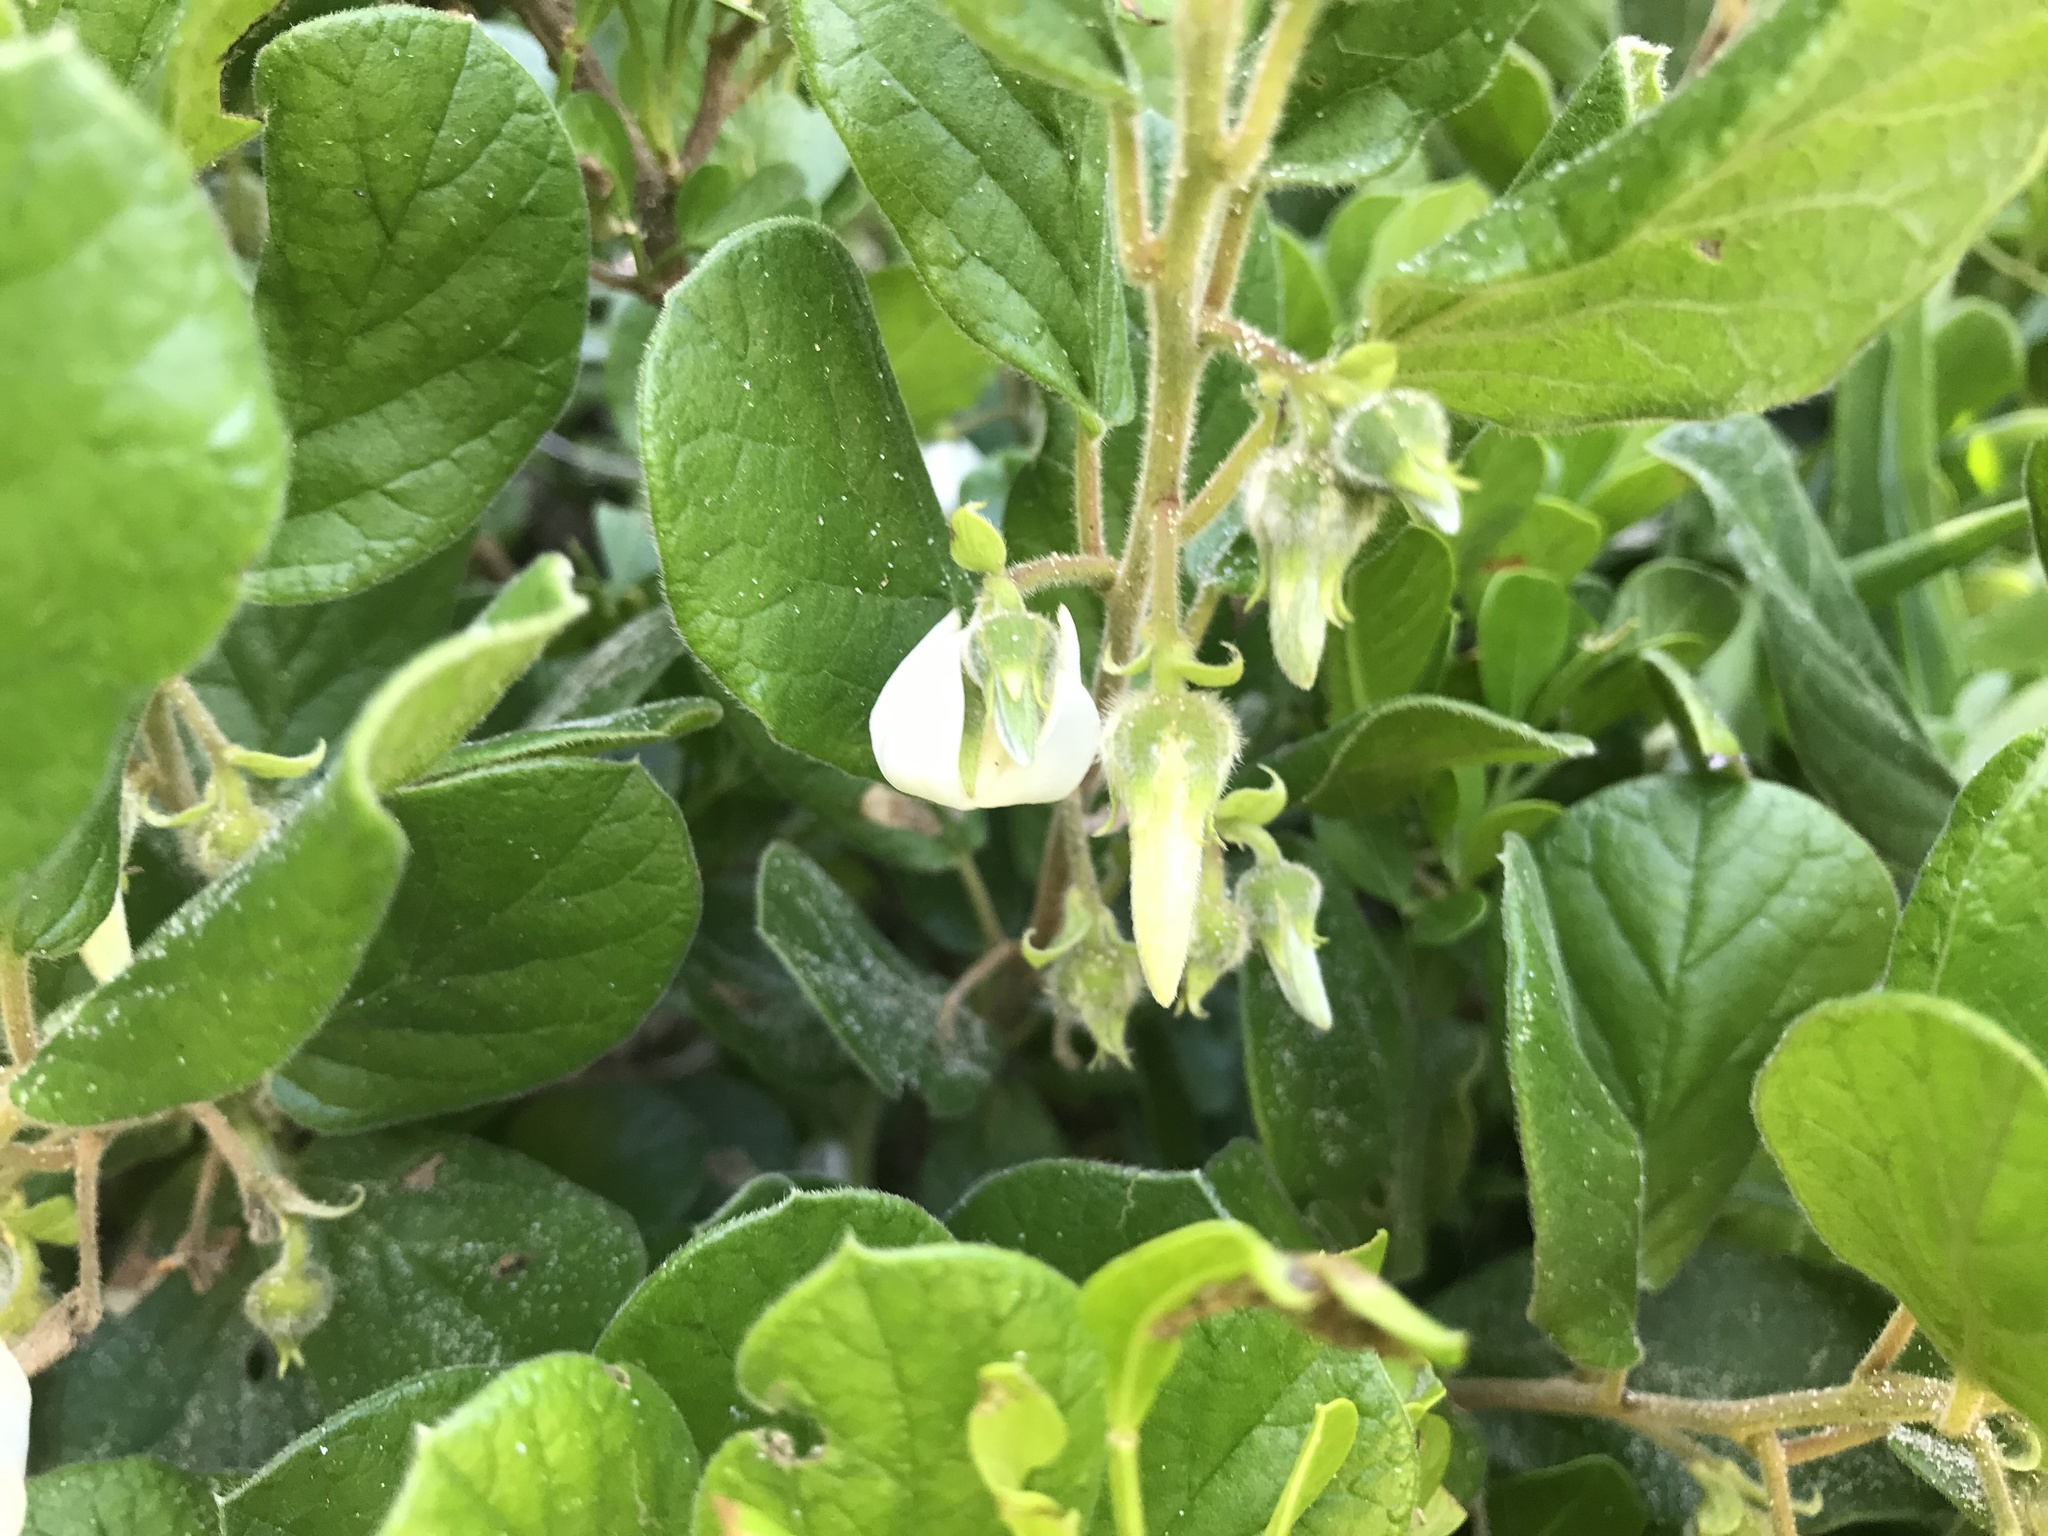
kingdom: Plantae
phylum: Tracheophyta
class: Magnoliopsida
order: Ericales
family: Ebenaceae
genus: Diospyros
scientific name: Diospyros villosa
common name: Hairy star-apple
